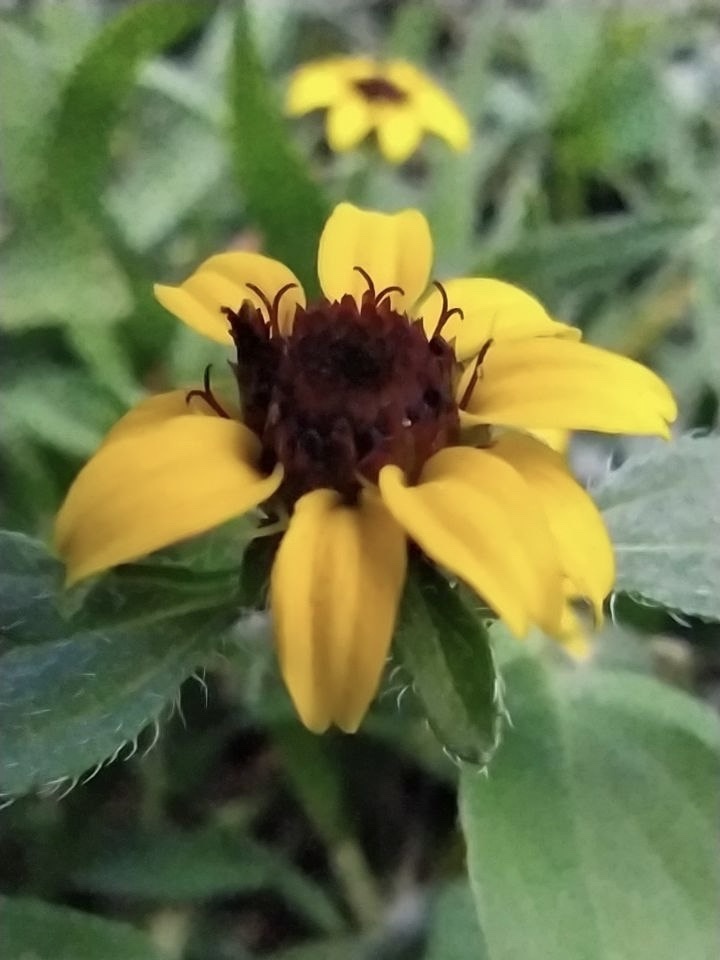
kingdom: Plantae
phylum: Tracheophyta
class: Magnoliopsida
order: Asterales
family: Asteraceae
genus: Sanvitalia
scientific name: Sanvitalia procumbens
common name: Mexican creeping zinnia
